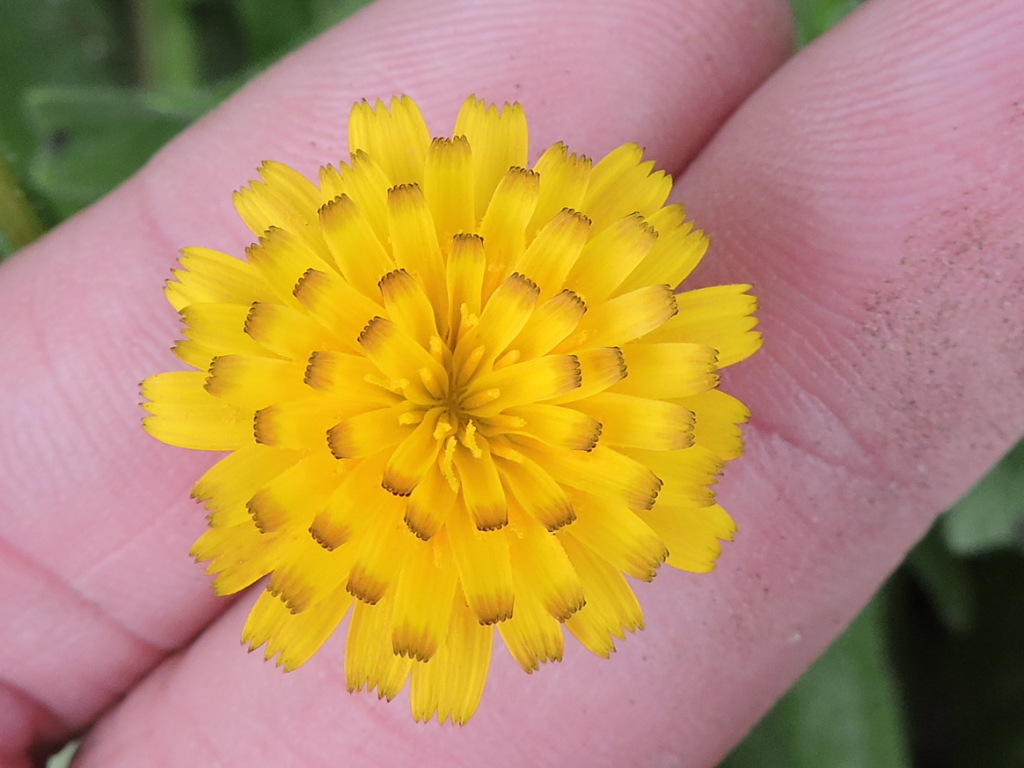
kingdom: Plantae
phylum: Tracheophyta
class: Magnoliopsida
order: Asterales
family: Asteraceae
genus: Hedypnois
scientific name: Hedypnois rhagadioloides
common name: Cretan weed
